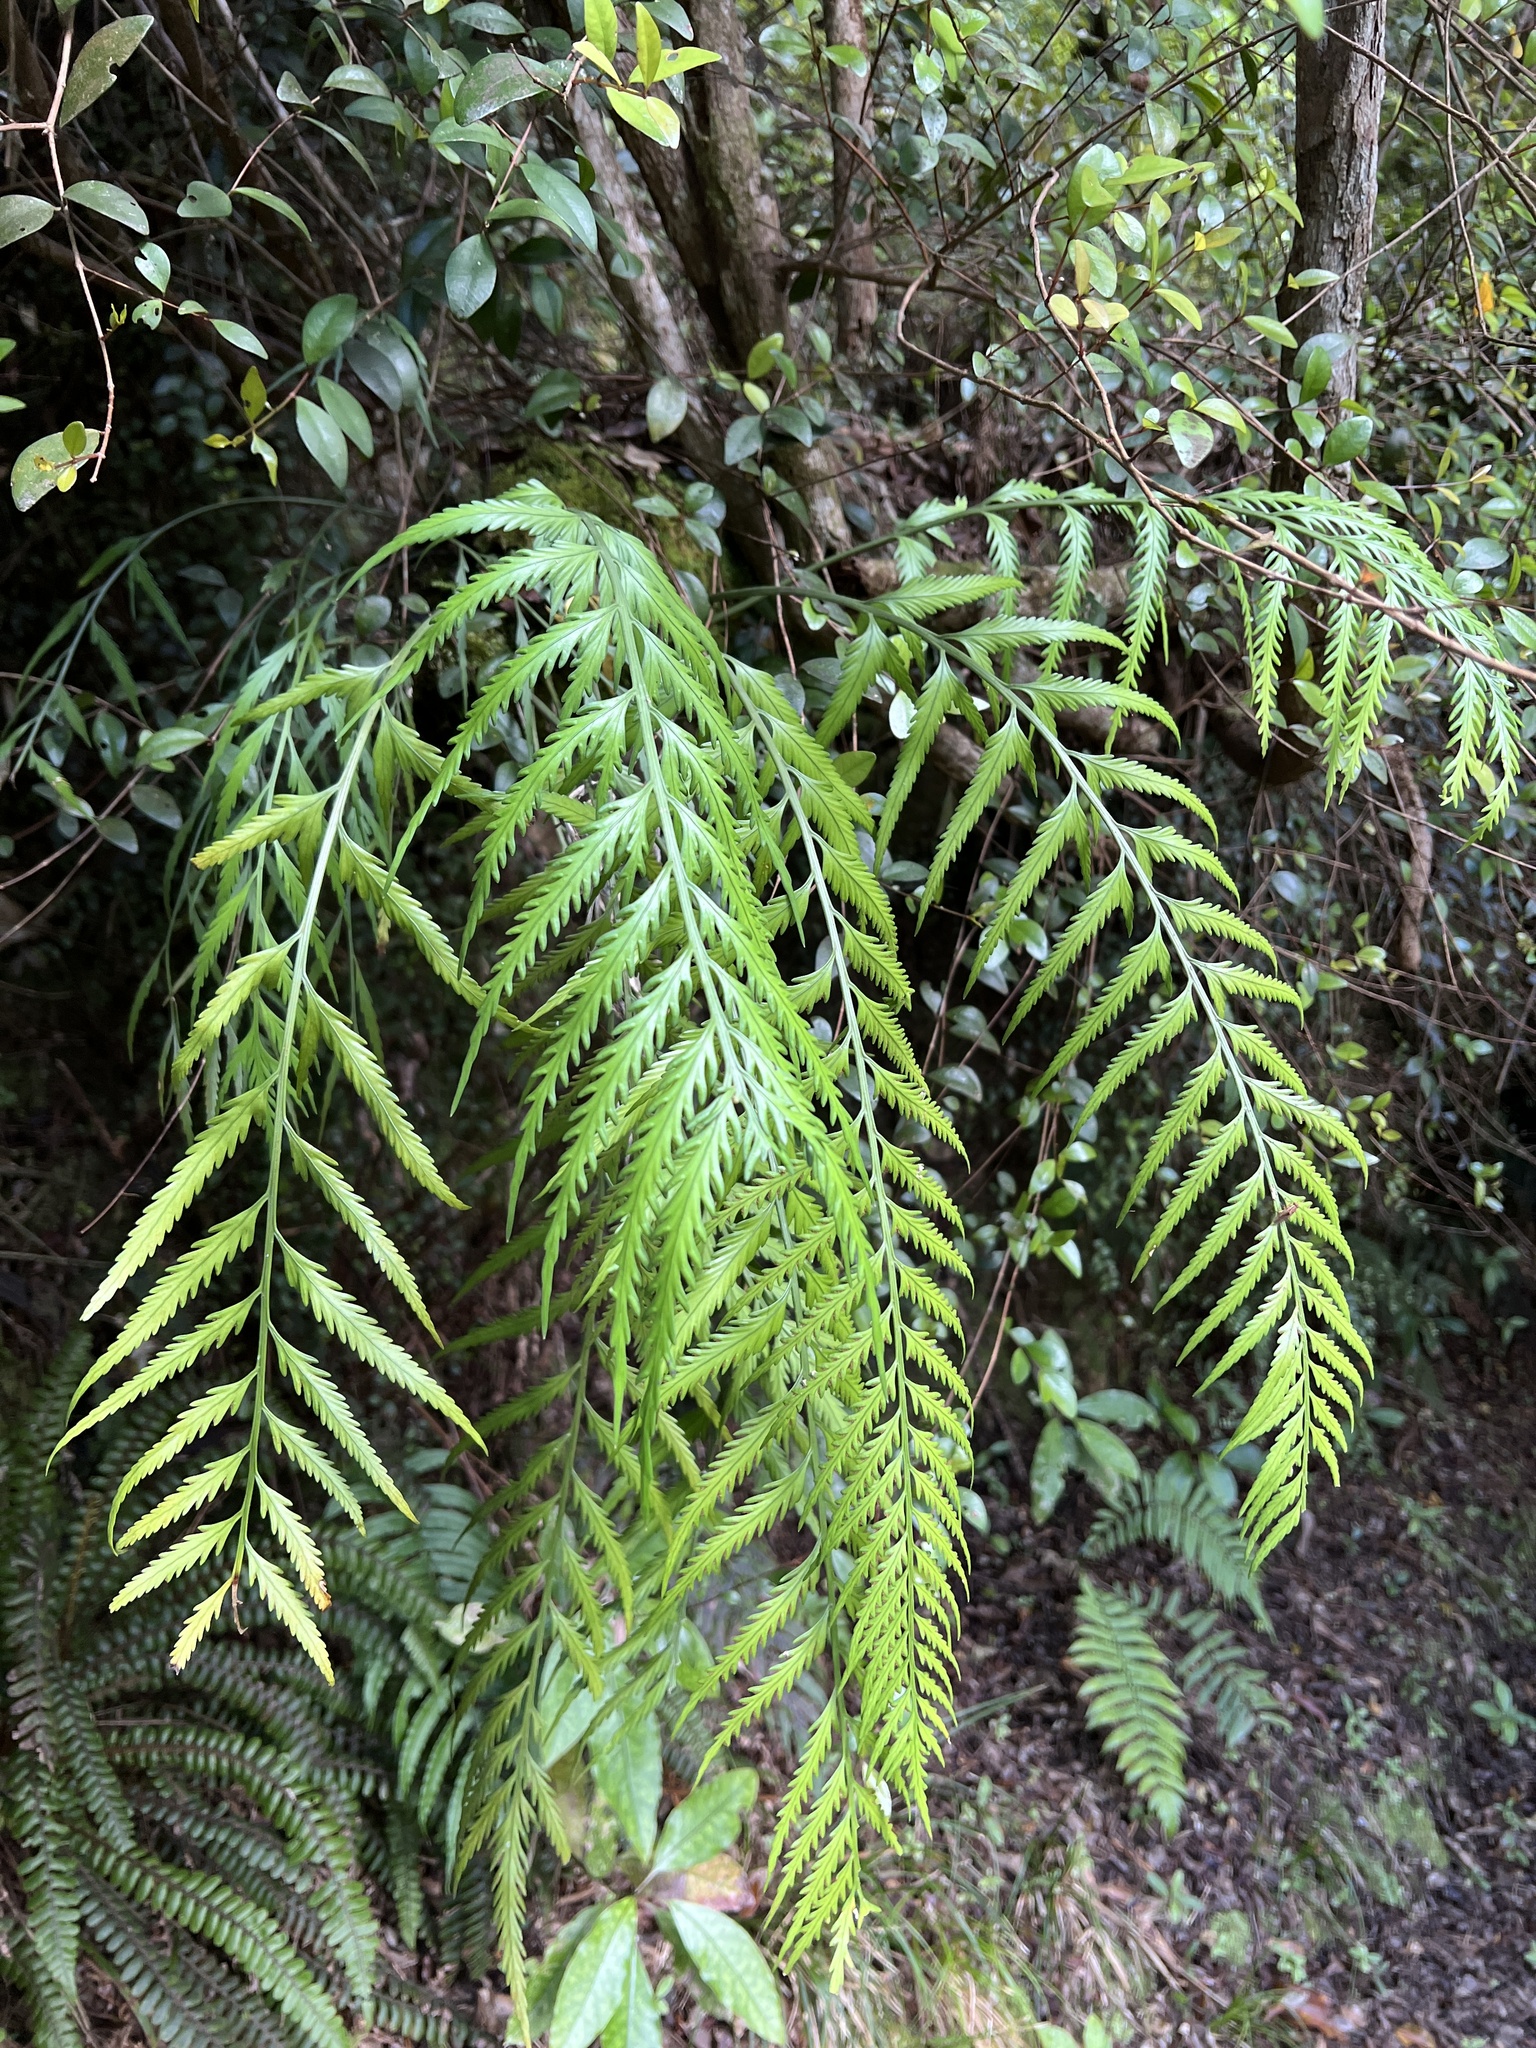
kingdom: Plantae
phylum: Tracheophyta
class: Polypodiopsida
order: Polypodiales
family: Aspleniaceae
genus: Asplenium
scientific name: Asplenium flaccidum
